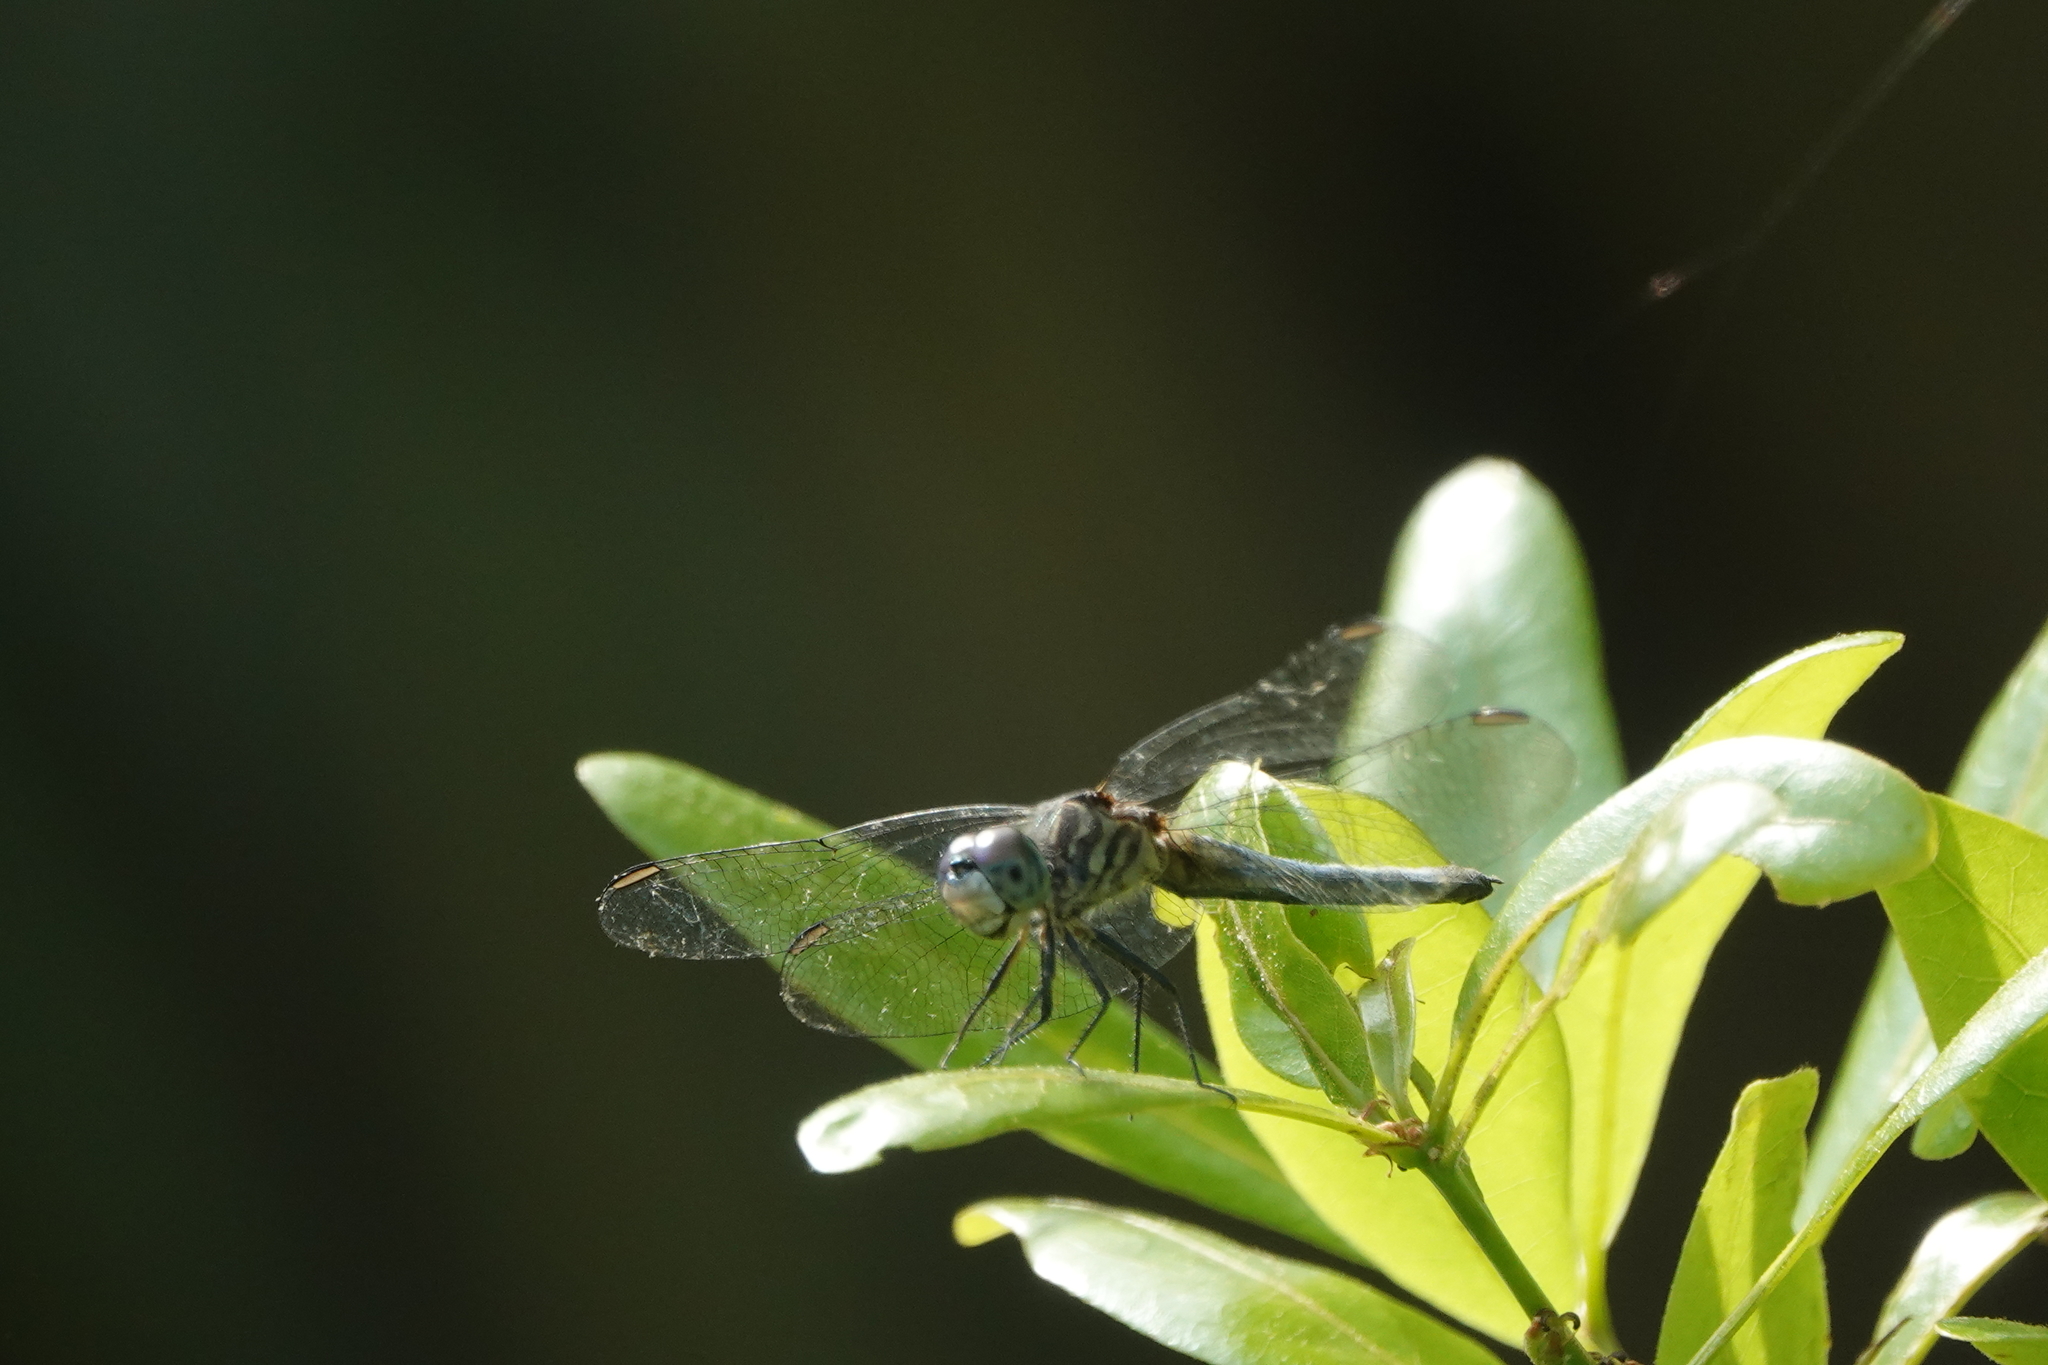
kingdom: Animalia
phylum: Arthropoda
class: Insecta
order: Odonata
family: Libellulidae
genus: Pachydiplax
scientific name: Pachydiplax longipennis
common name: Blue dasher
